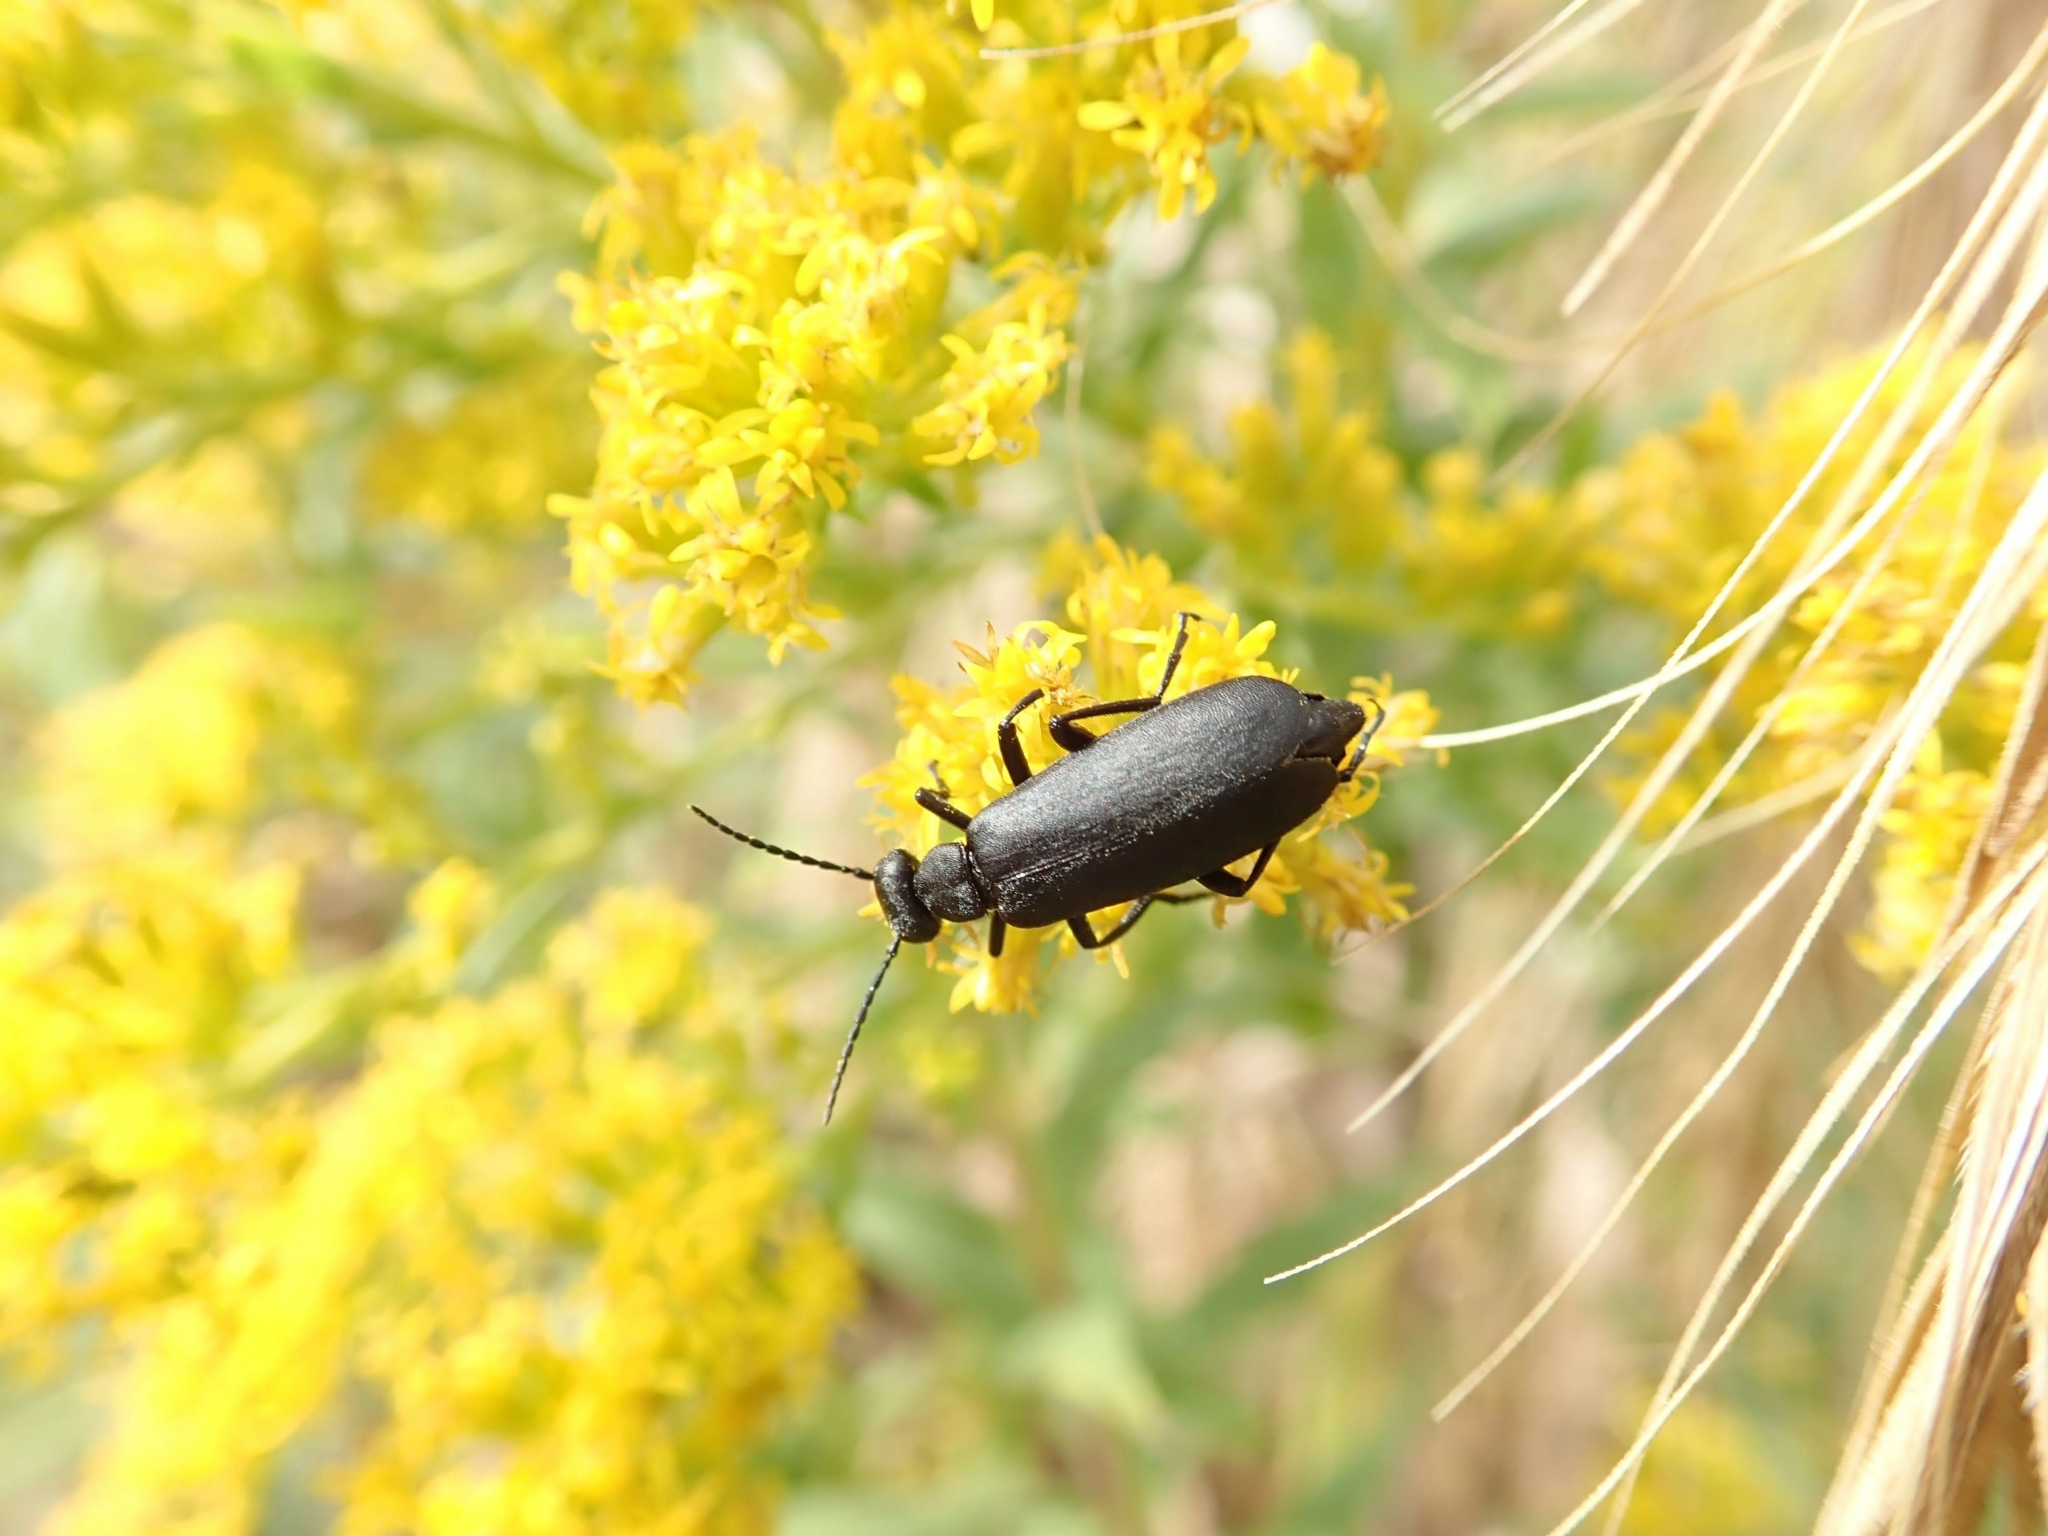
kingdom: Animalia
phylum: Arthropoda
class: Insecta
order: Coleoptera
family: Meloidae
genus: Epicauta
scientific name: Epicauta pensylvanica
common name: Black blister beetle
